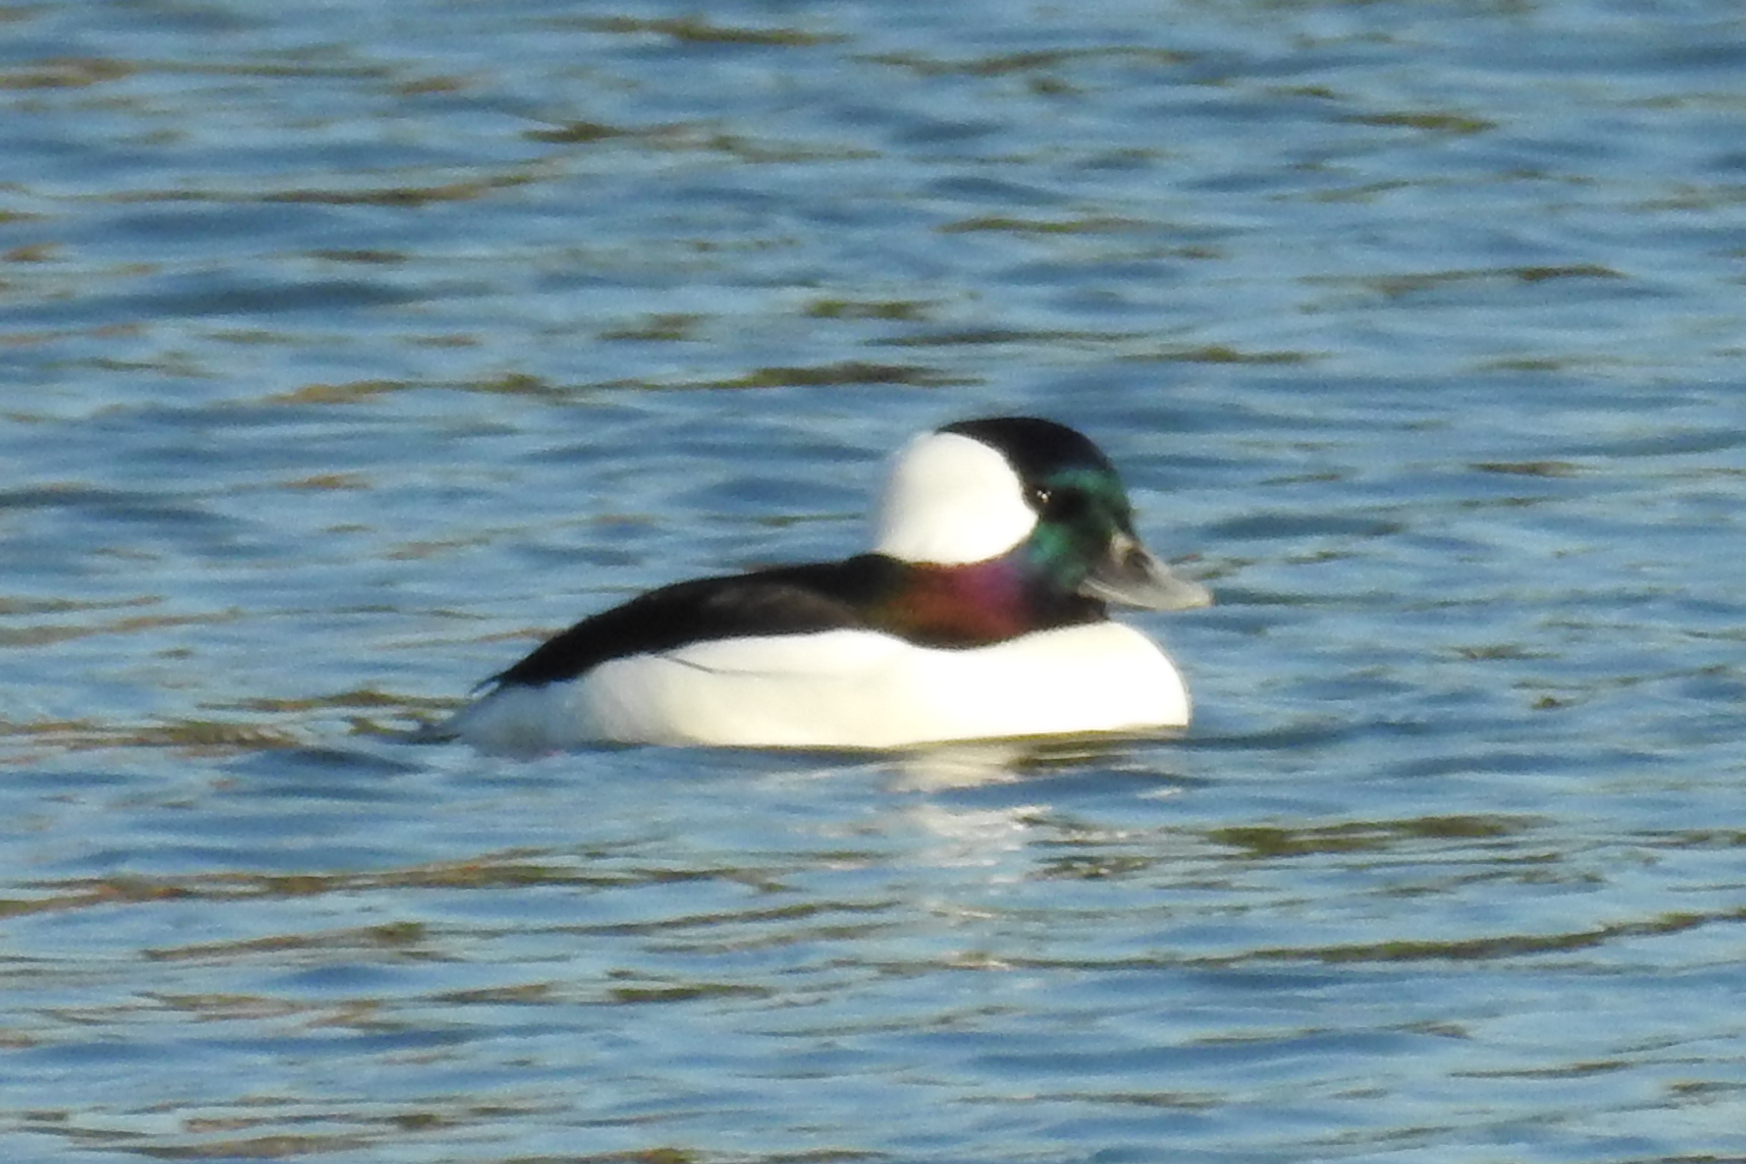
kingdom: Animalia
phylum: Chordata
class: Aves
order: Anseriformes
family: Anatidae
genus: Bucephala
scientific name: Bucephala albeola
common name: Bufflehead
